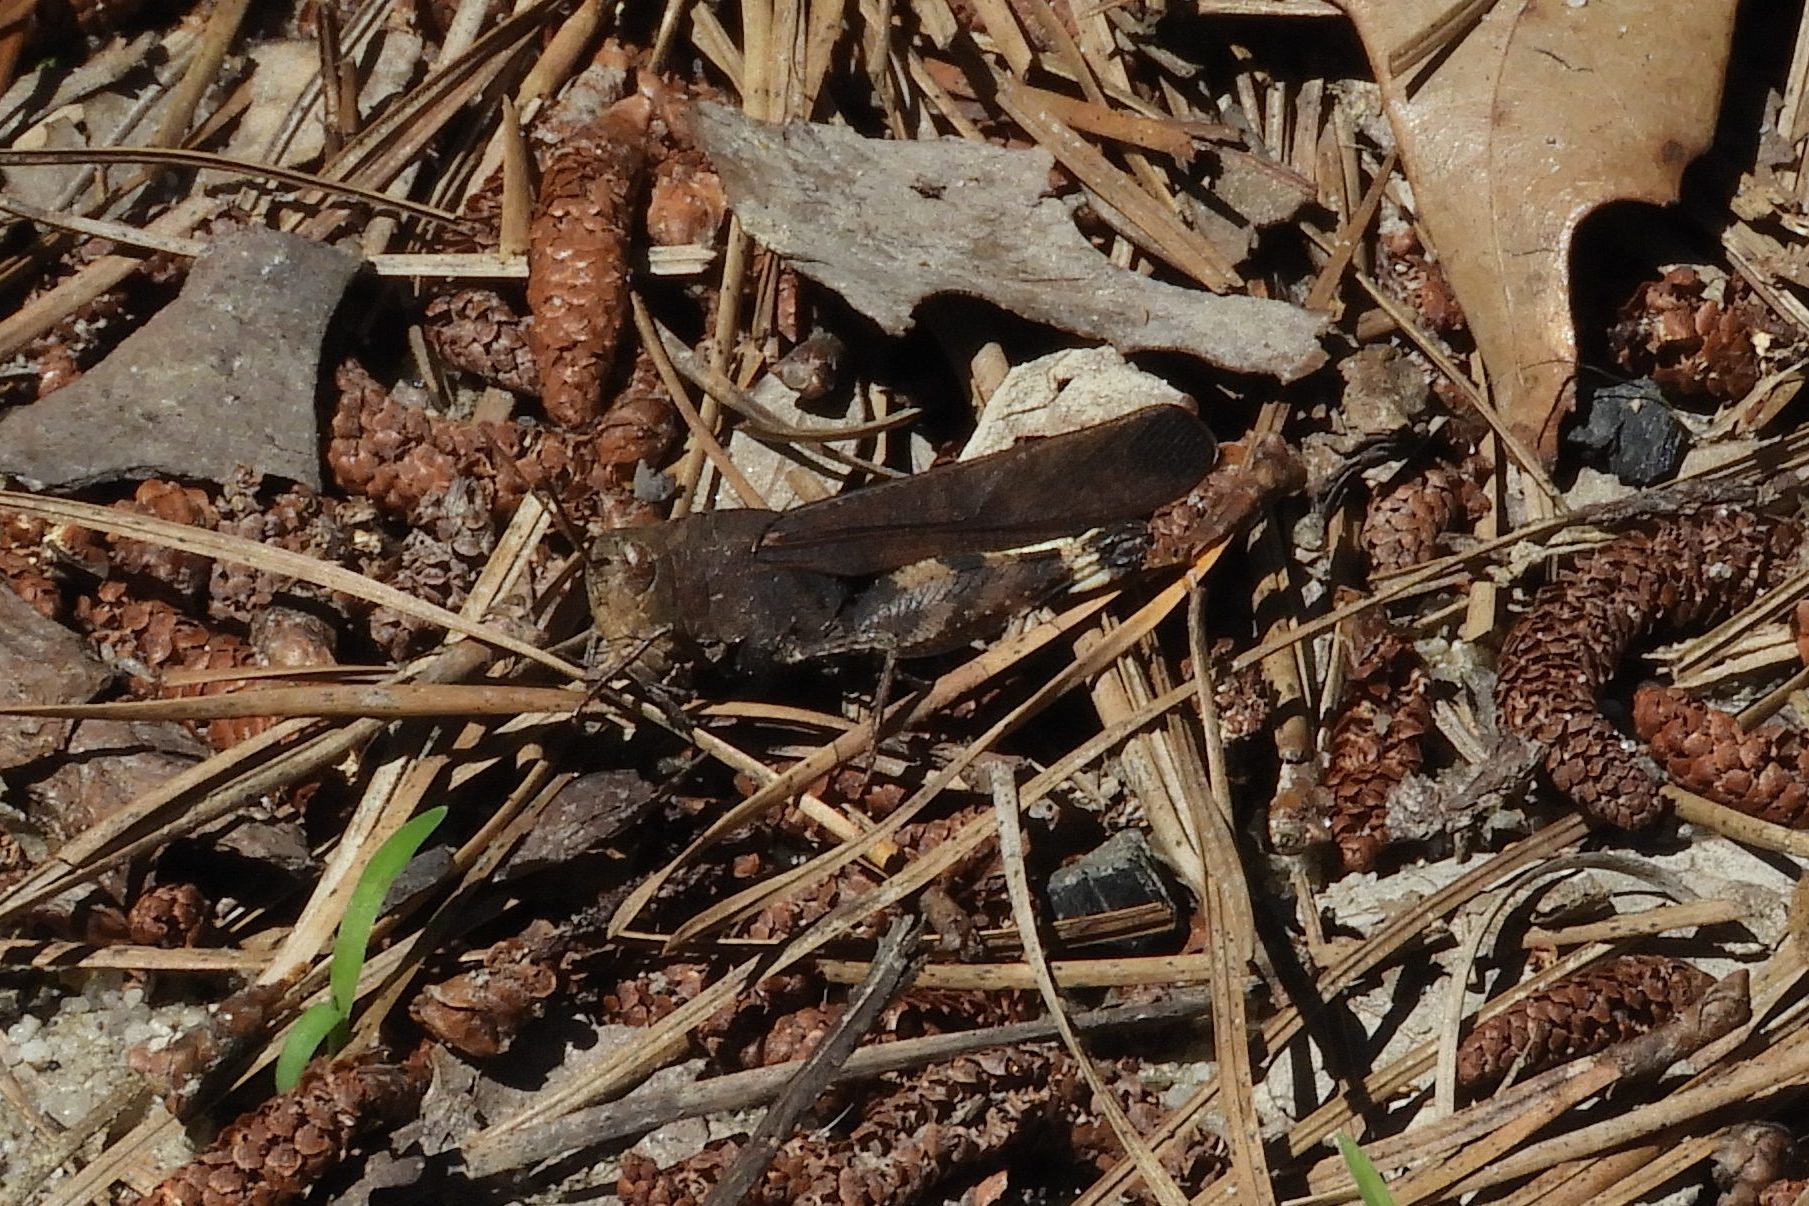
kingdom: Animalia
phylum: Arthropoda
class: Insecta
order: Orthoptera
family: Acrididae
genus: Arphia
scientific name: Arphia sulphurea
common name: Spring yellow-winged locust
